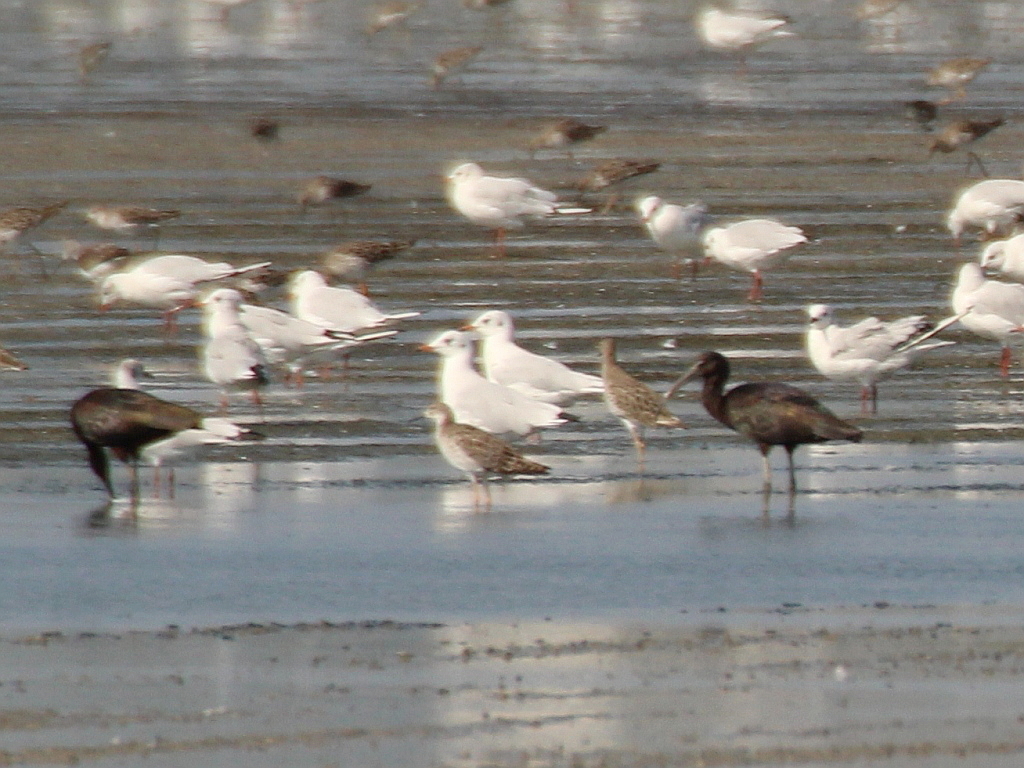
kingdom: Animalia
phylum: Chordata
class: Aves
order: Pelecaniformes
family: Threskiornithidae
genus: Plegadis
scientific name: Plegadis falcinellus
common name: Glossy ibis
